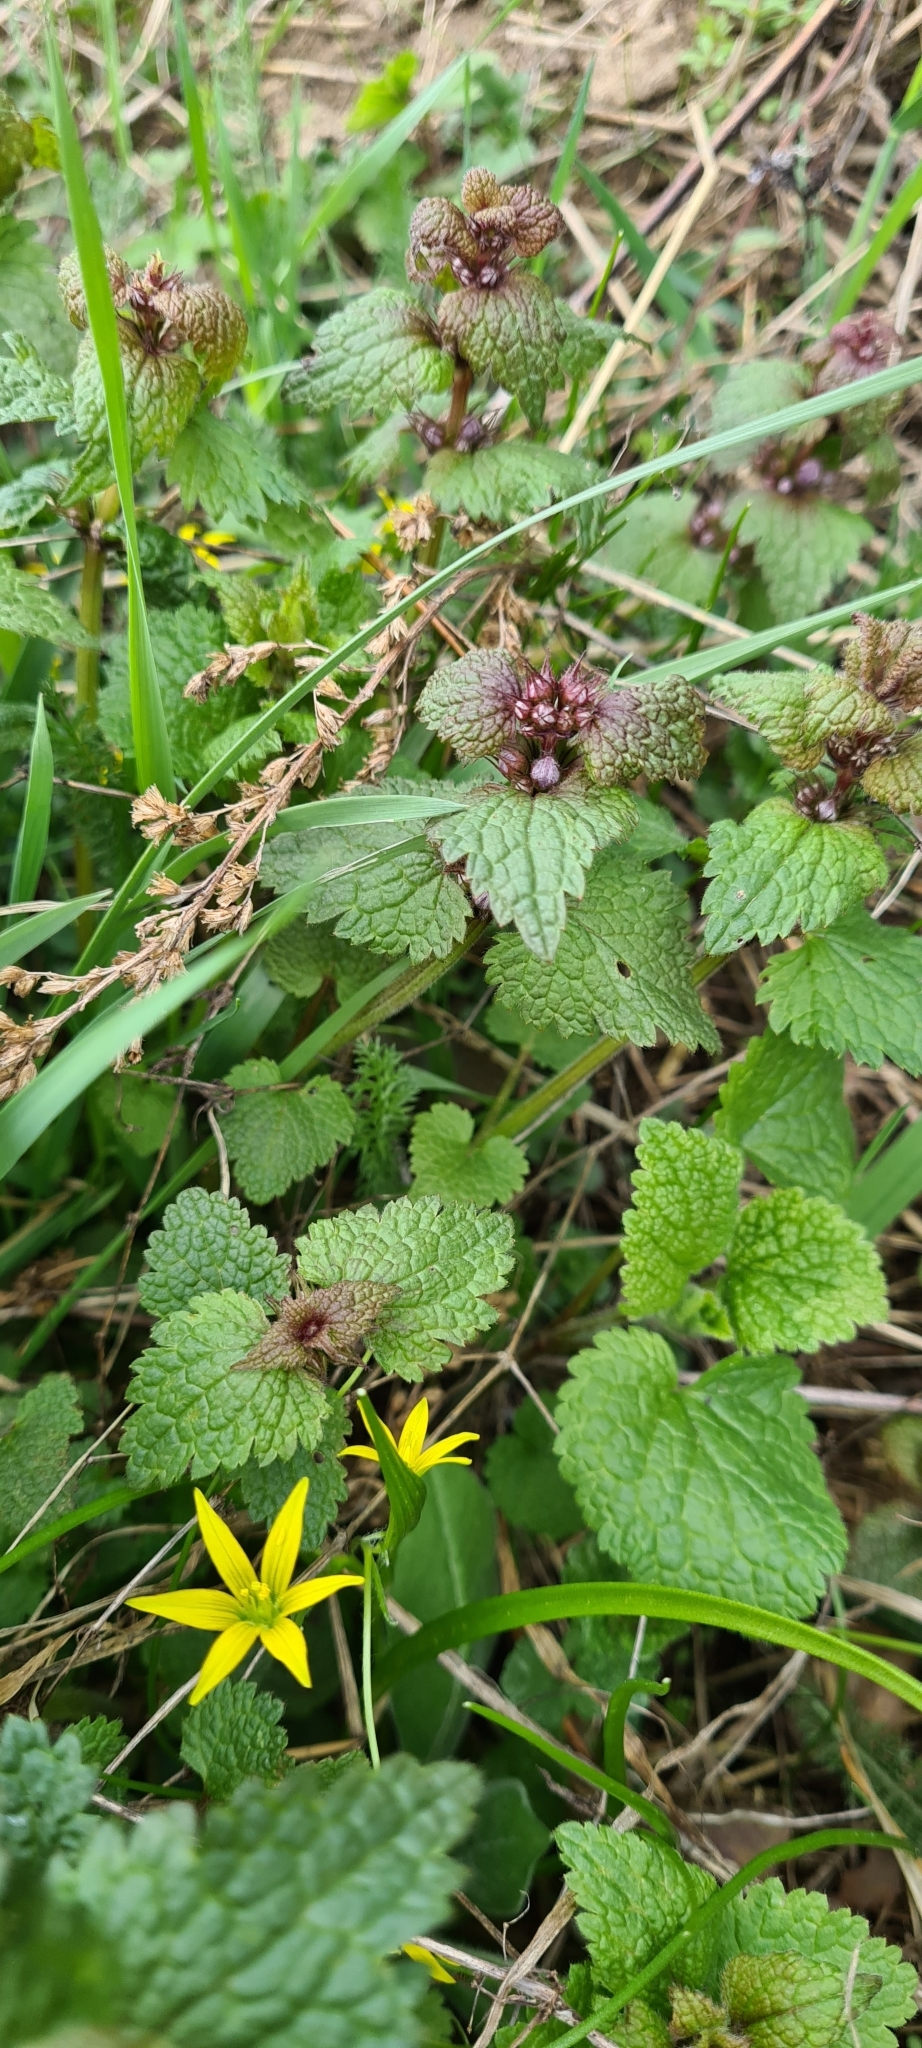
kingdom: Plantae
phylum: Tracheophyta
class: Magnoliopsida
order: Lamiales
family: Lamiaceae
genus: Lamium
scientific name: Lamium maculatum
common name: Spotted dead-nettle
